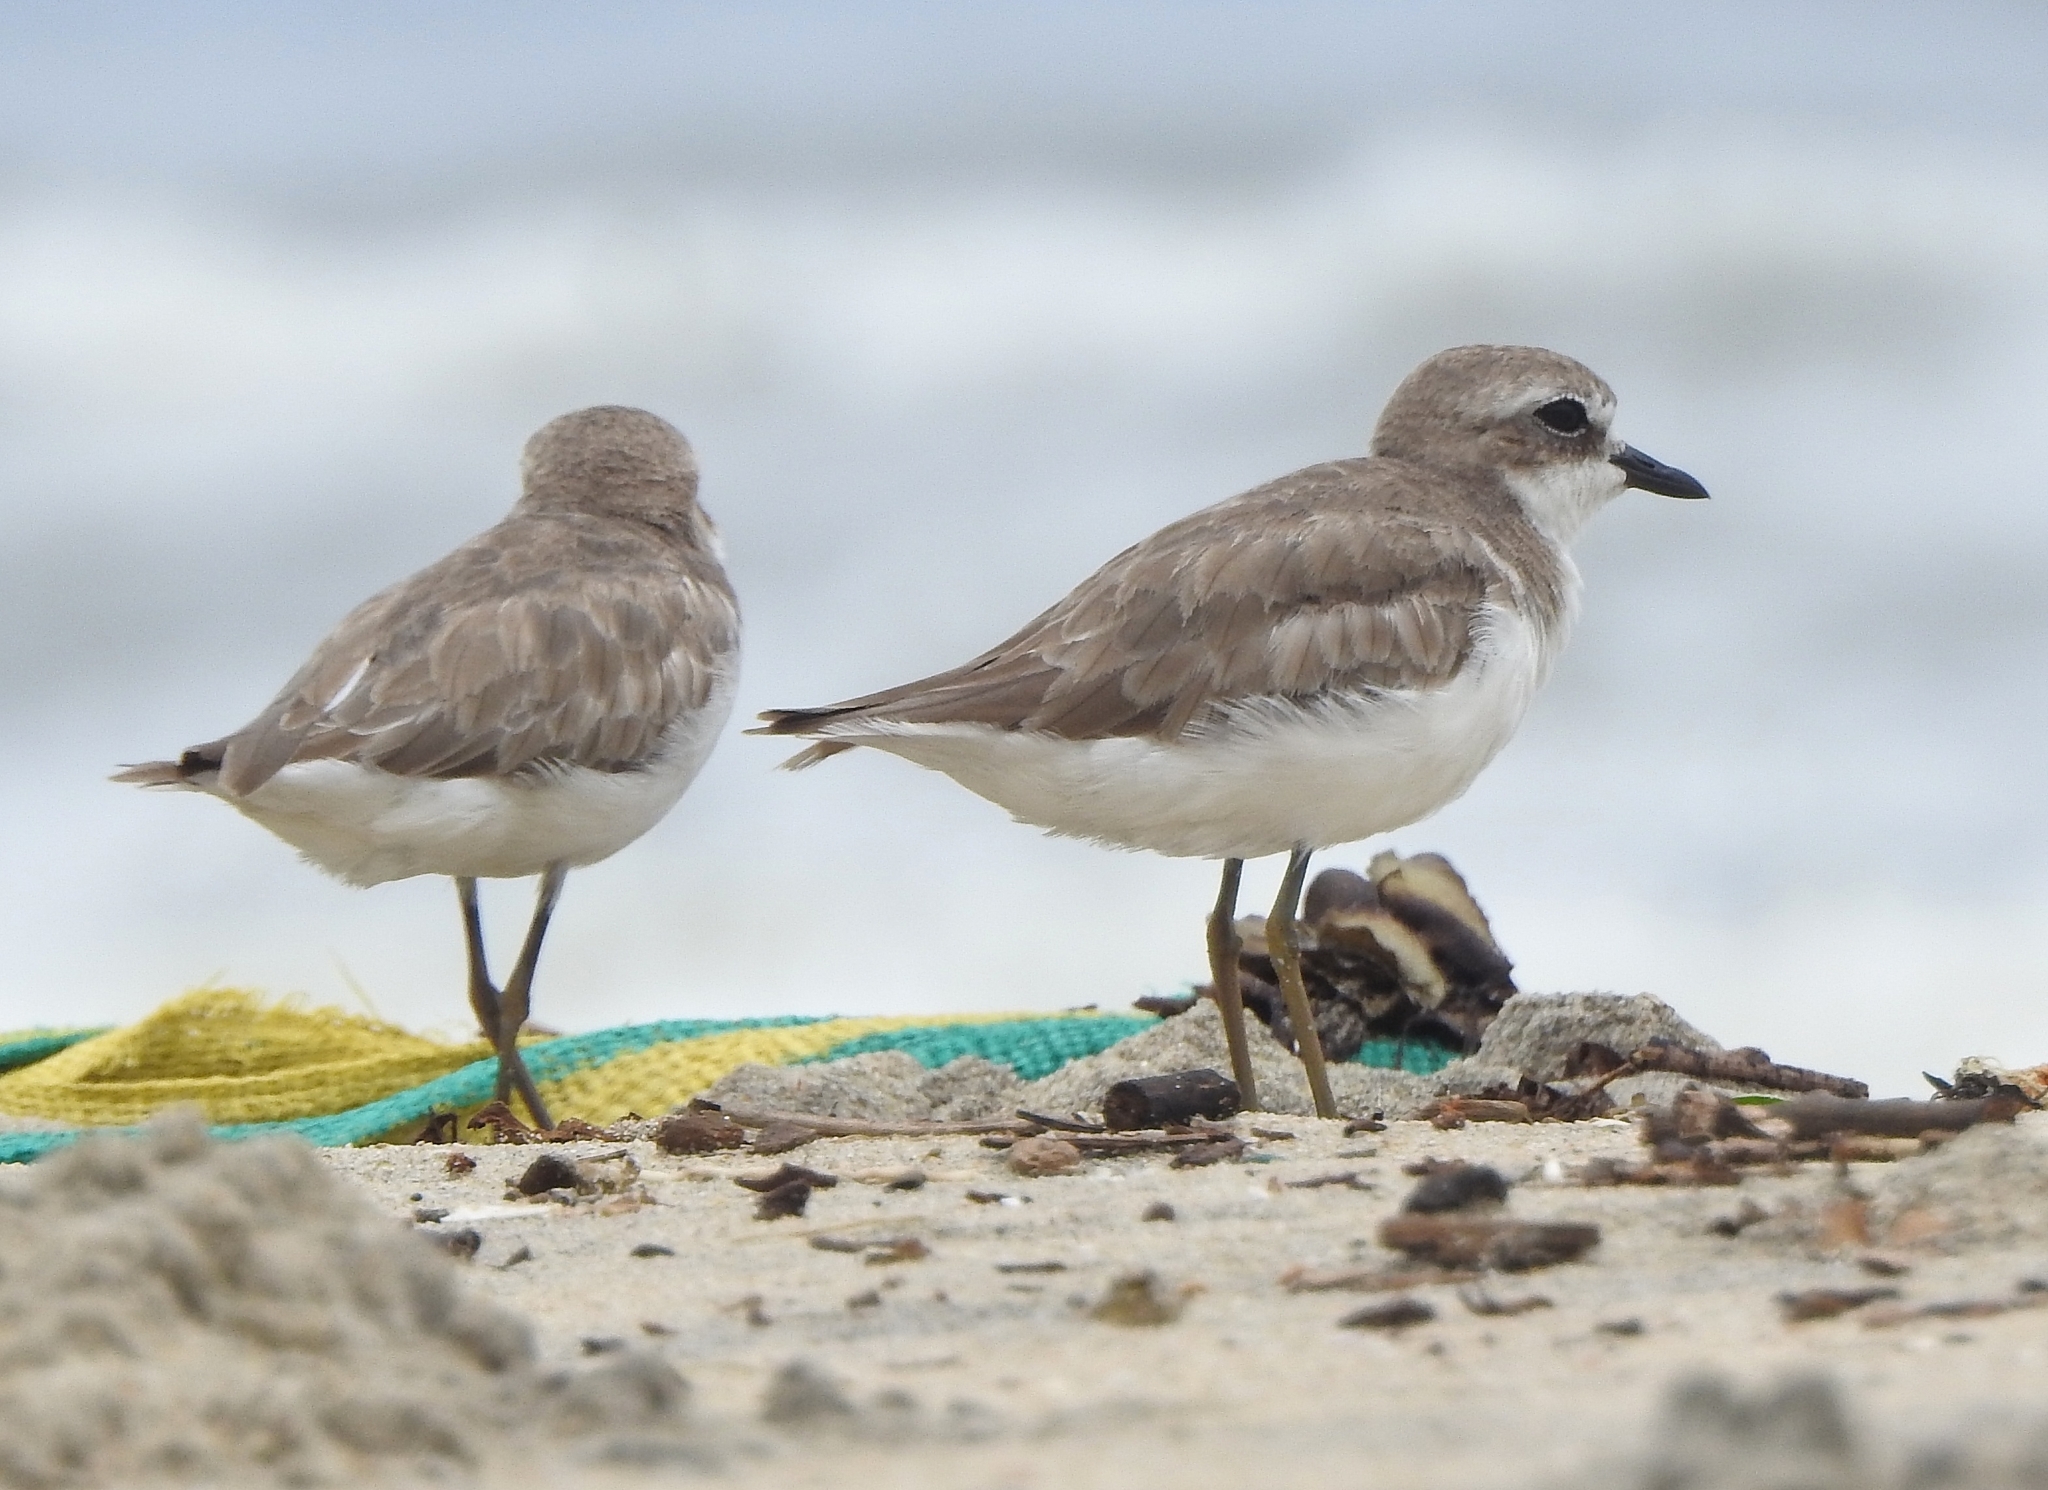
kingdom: Animalia
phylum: Chordata
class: Aves
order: Charadriiformes
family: Charadriidae
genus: Charadrius
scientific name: Charadrius leschenaultii
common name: Greater sand plover
